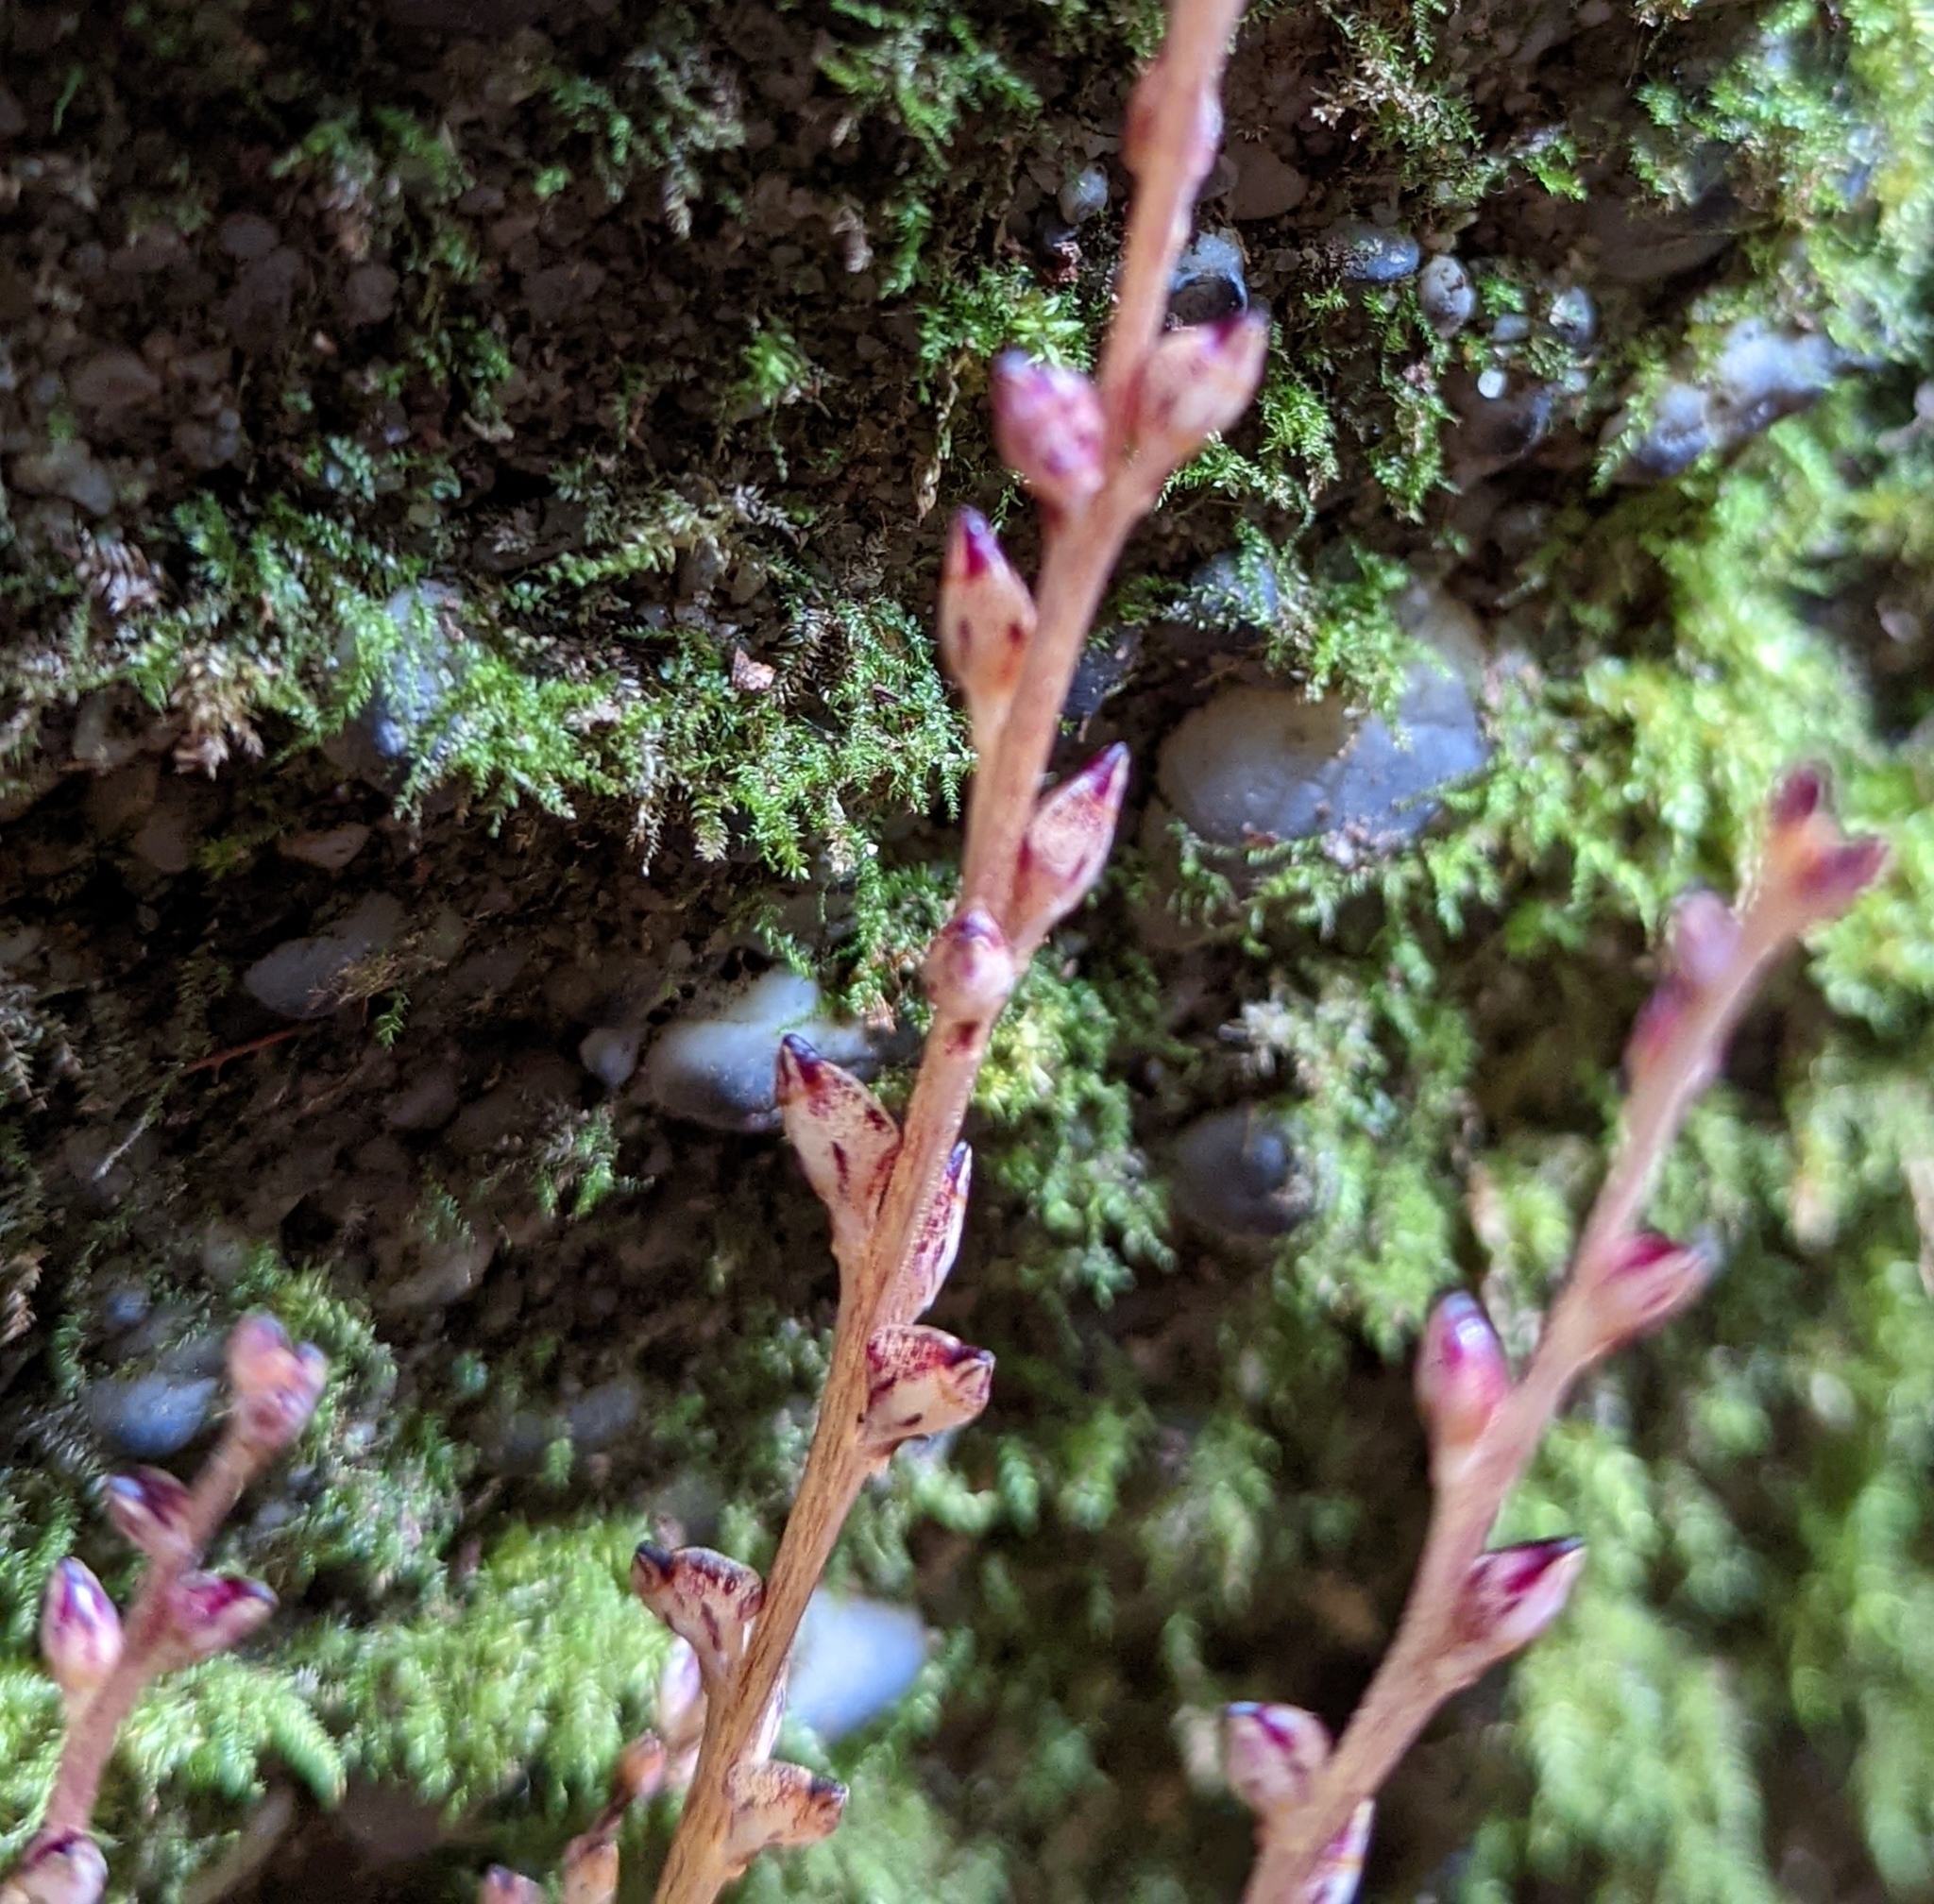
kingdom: Plantae
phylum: Tracheophyta
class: Magnoliopsida
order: Lamiales
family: Orobanchaceae
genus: Epifagus
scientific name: Epifagus virginiana
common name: Beechdrops
